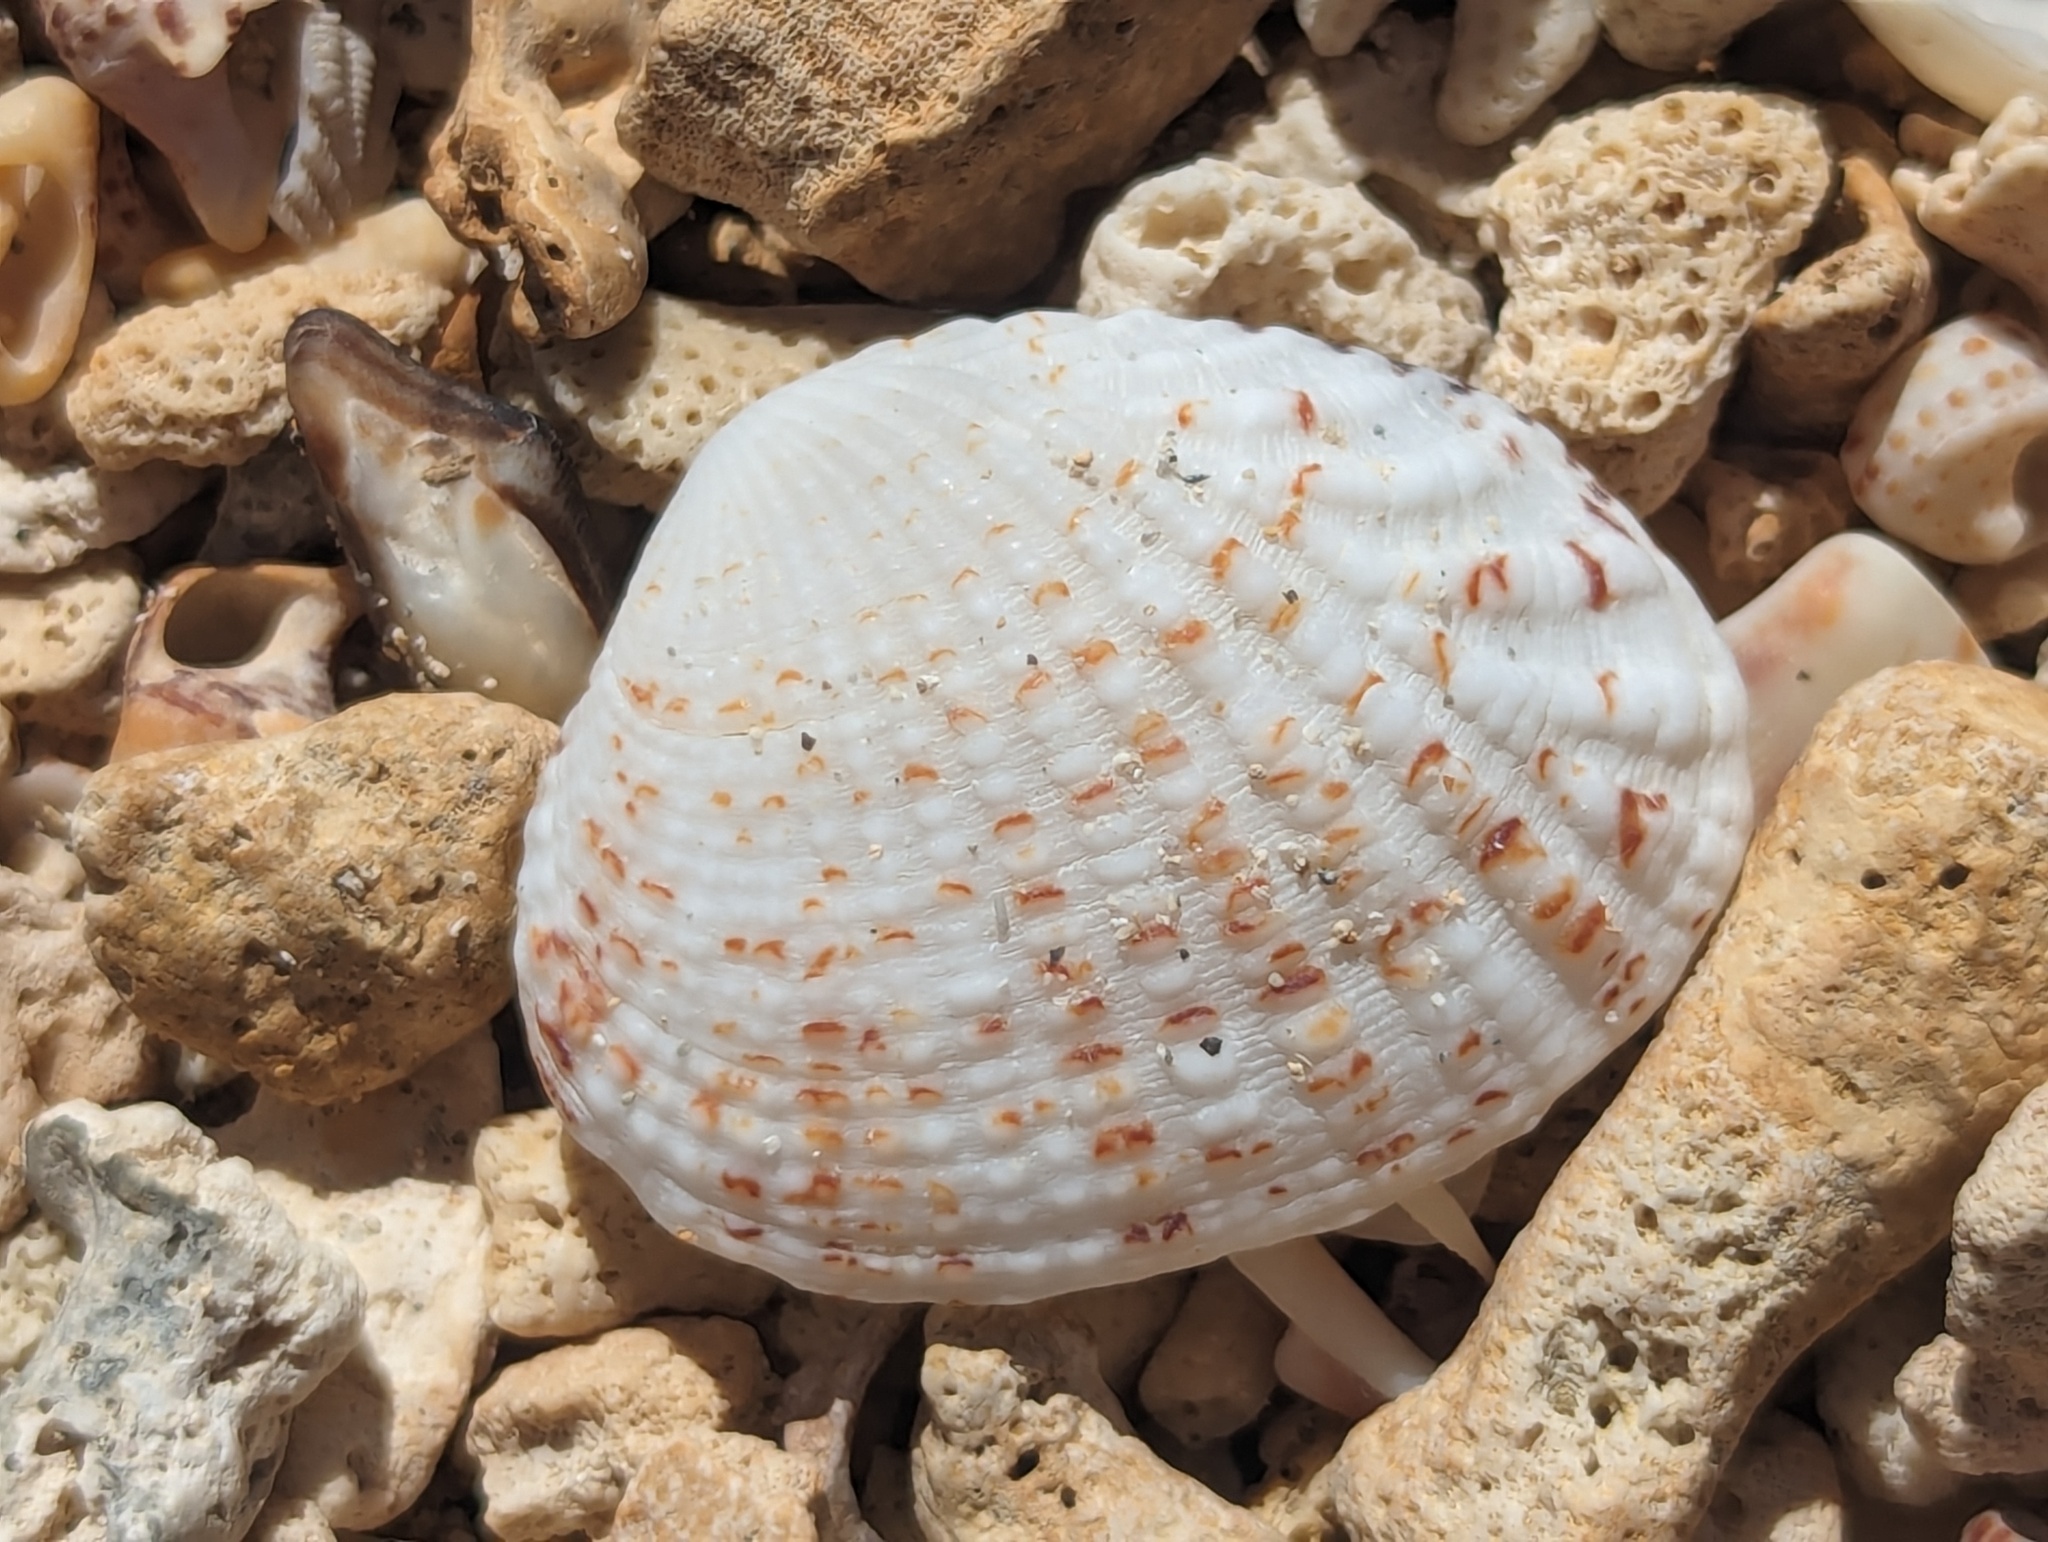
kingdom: Animalia
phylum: Mollusca
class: Bivalvia
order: Venerida
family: Veneridae
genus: Gafrarium
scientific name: Gafrarium pectinatum
